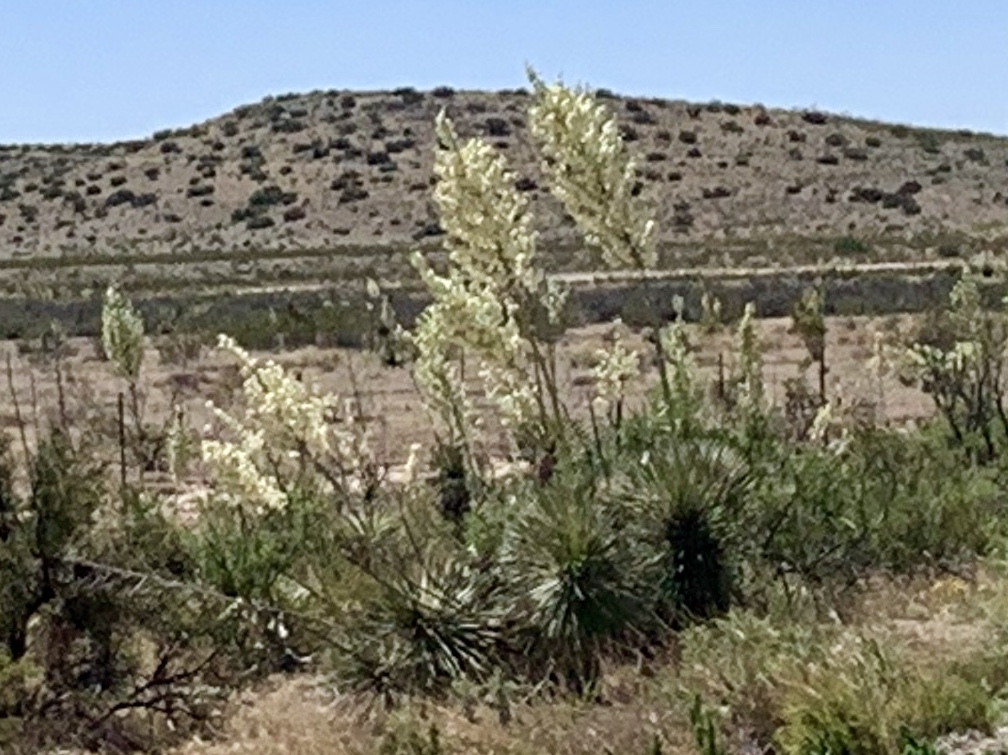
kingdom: Plantae
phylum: Tracheophyta
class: Liliopsida
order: Asparagales
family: Asparagaceae
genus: Yucca
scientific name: Yucca elata
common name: Palmella
